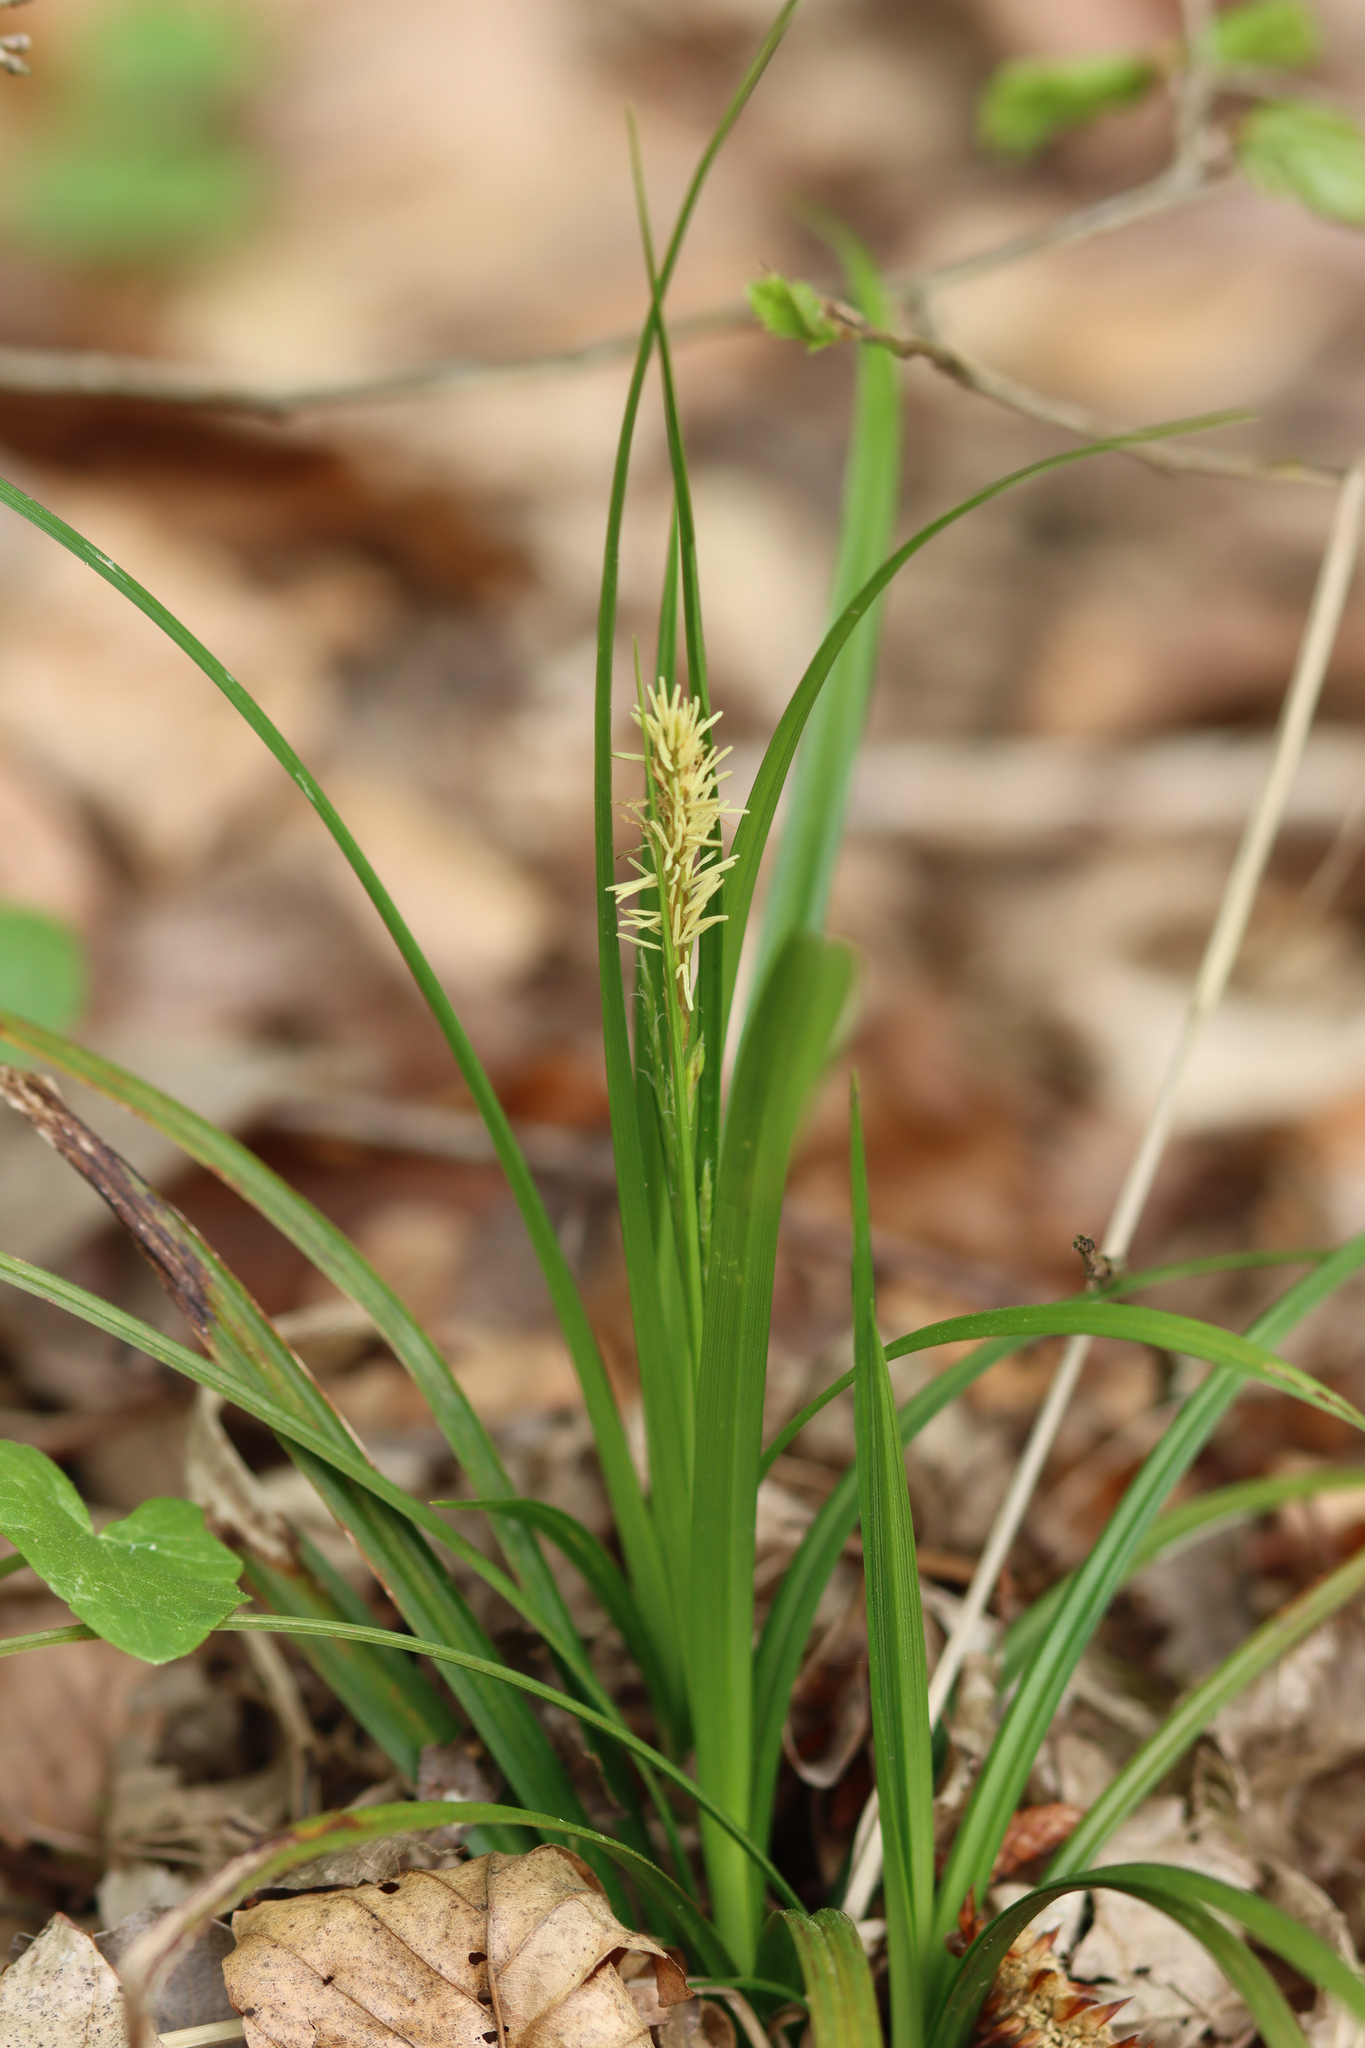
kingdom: Plantae
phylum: Tracheophyta
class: Liliopsida
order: Poales
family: Cyperaceae
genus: Carex
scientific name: Carex sylvatica
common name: Wood-sedge
